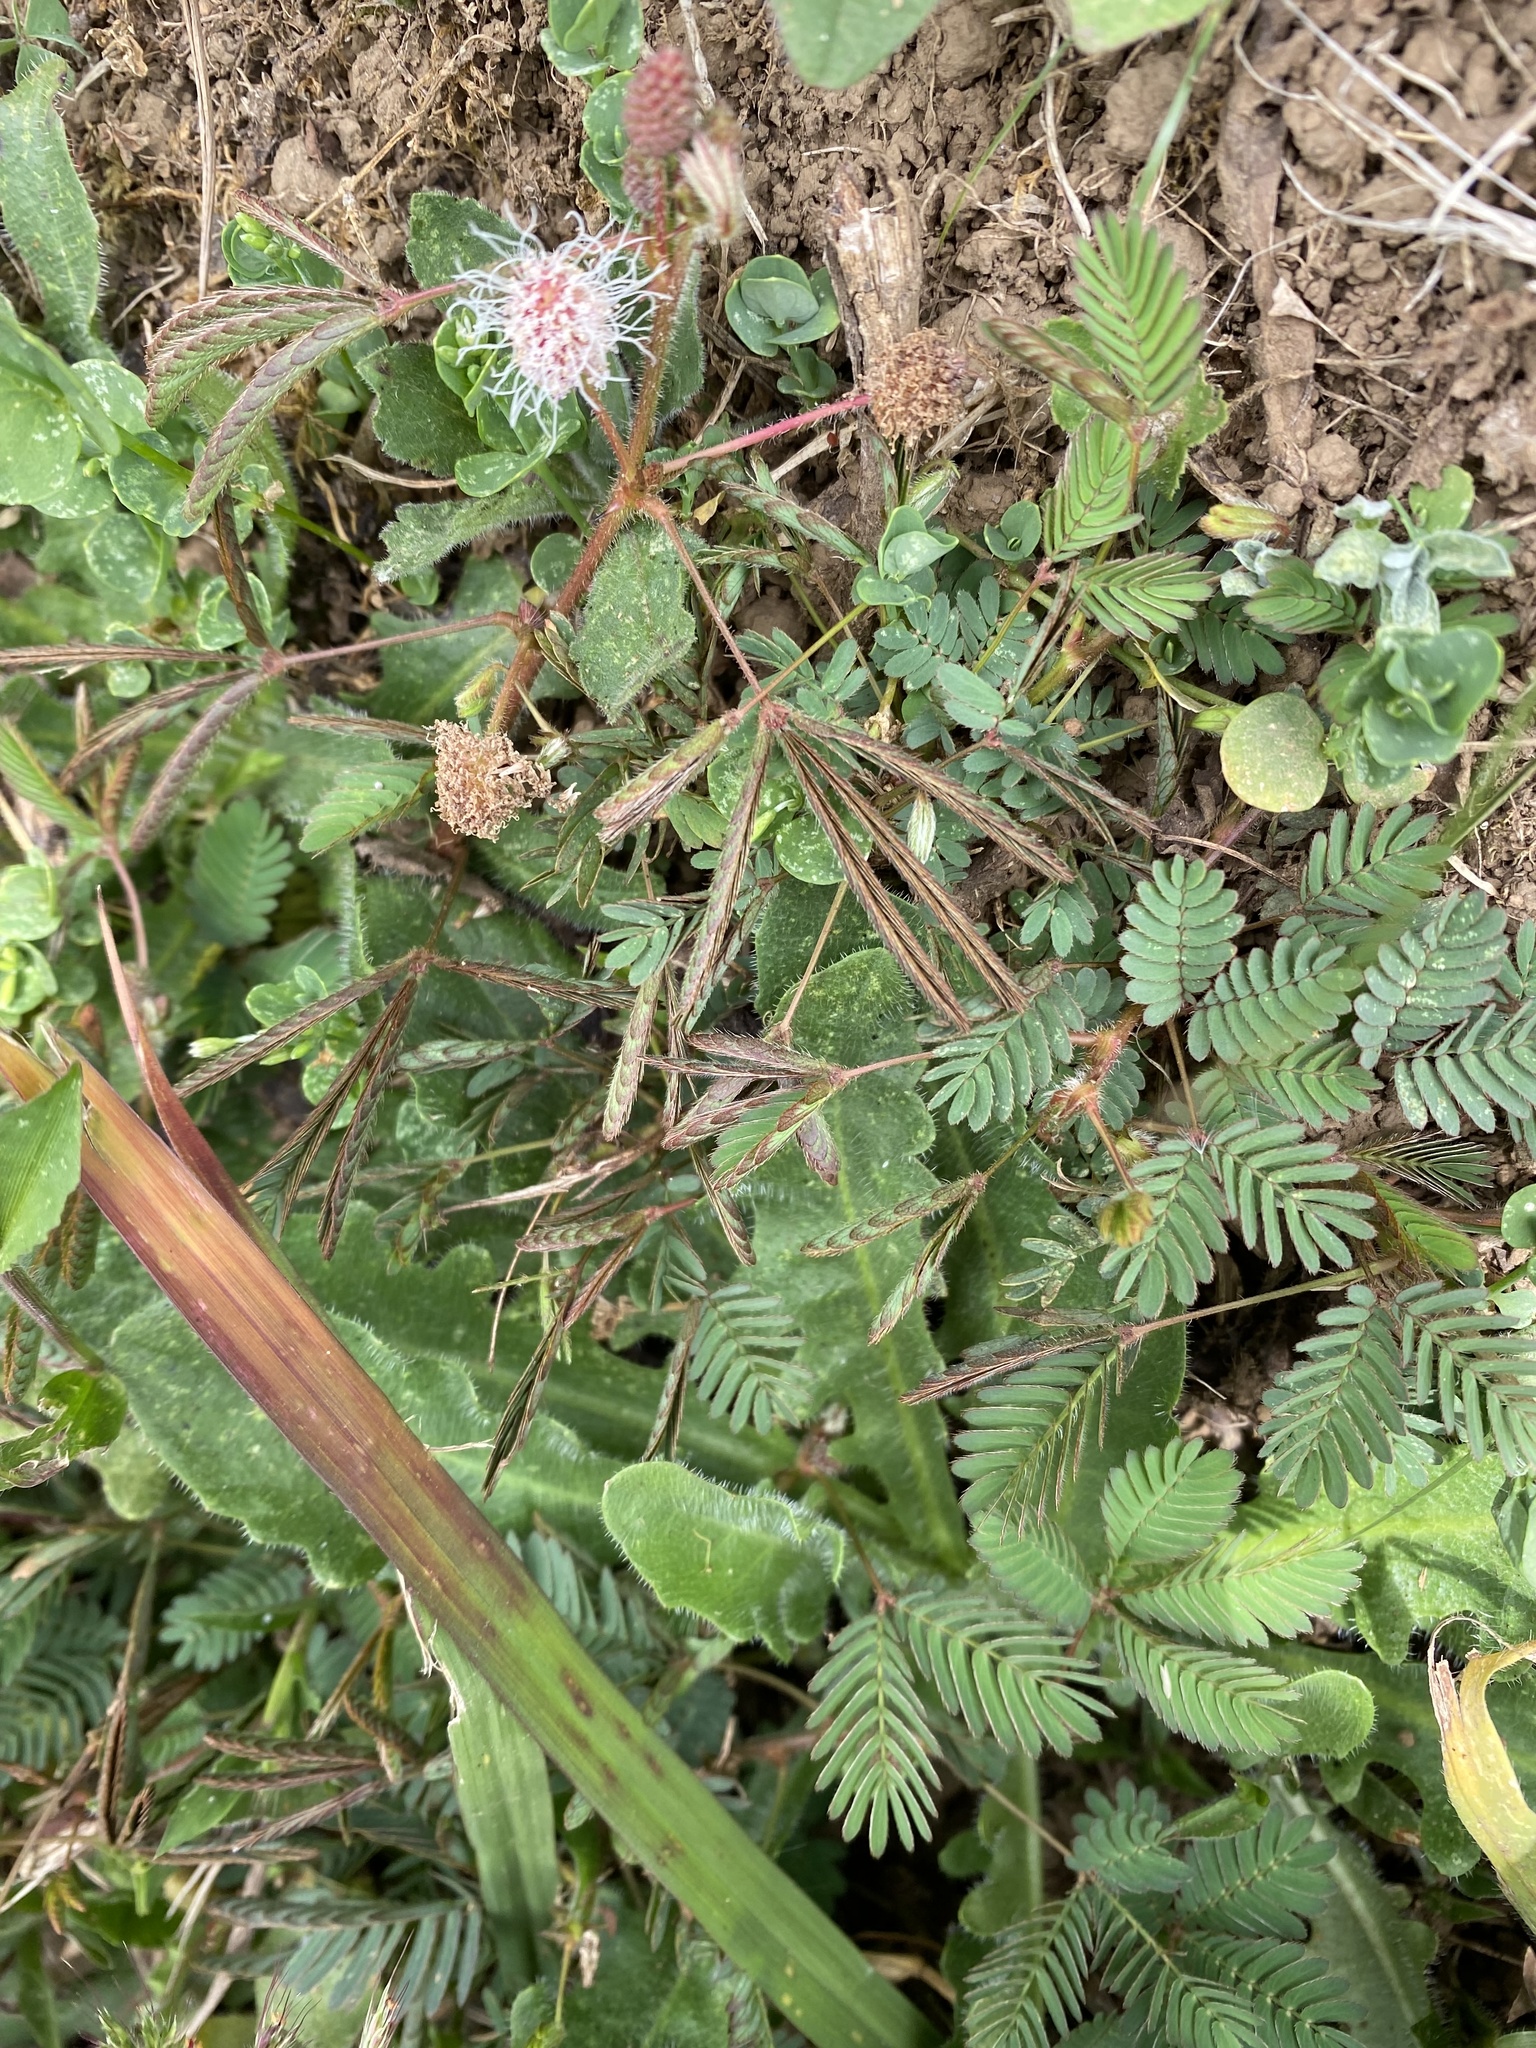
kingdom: Plantae
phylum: Tracheophyta
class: Magnoliopsida
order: Fabales
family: Fabaceae
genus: Mimosa
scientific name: Mimosa pudica
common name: Sensitive plant
